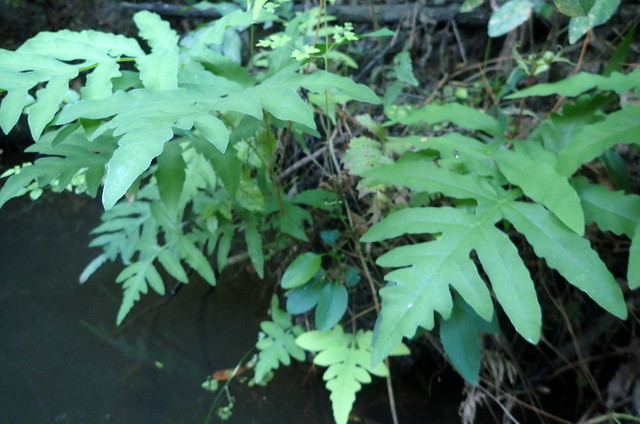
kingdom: Plantae
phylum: Tracheophyta
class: Polypodiopsida
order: Polypodiales
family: Onocleaceae
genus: Onoclea
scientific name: Onoclea sensibilis
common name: Sensitive fern
